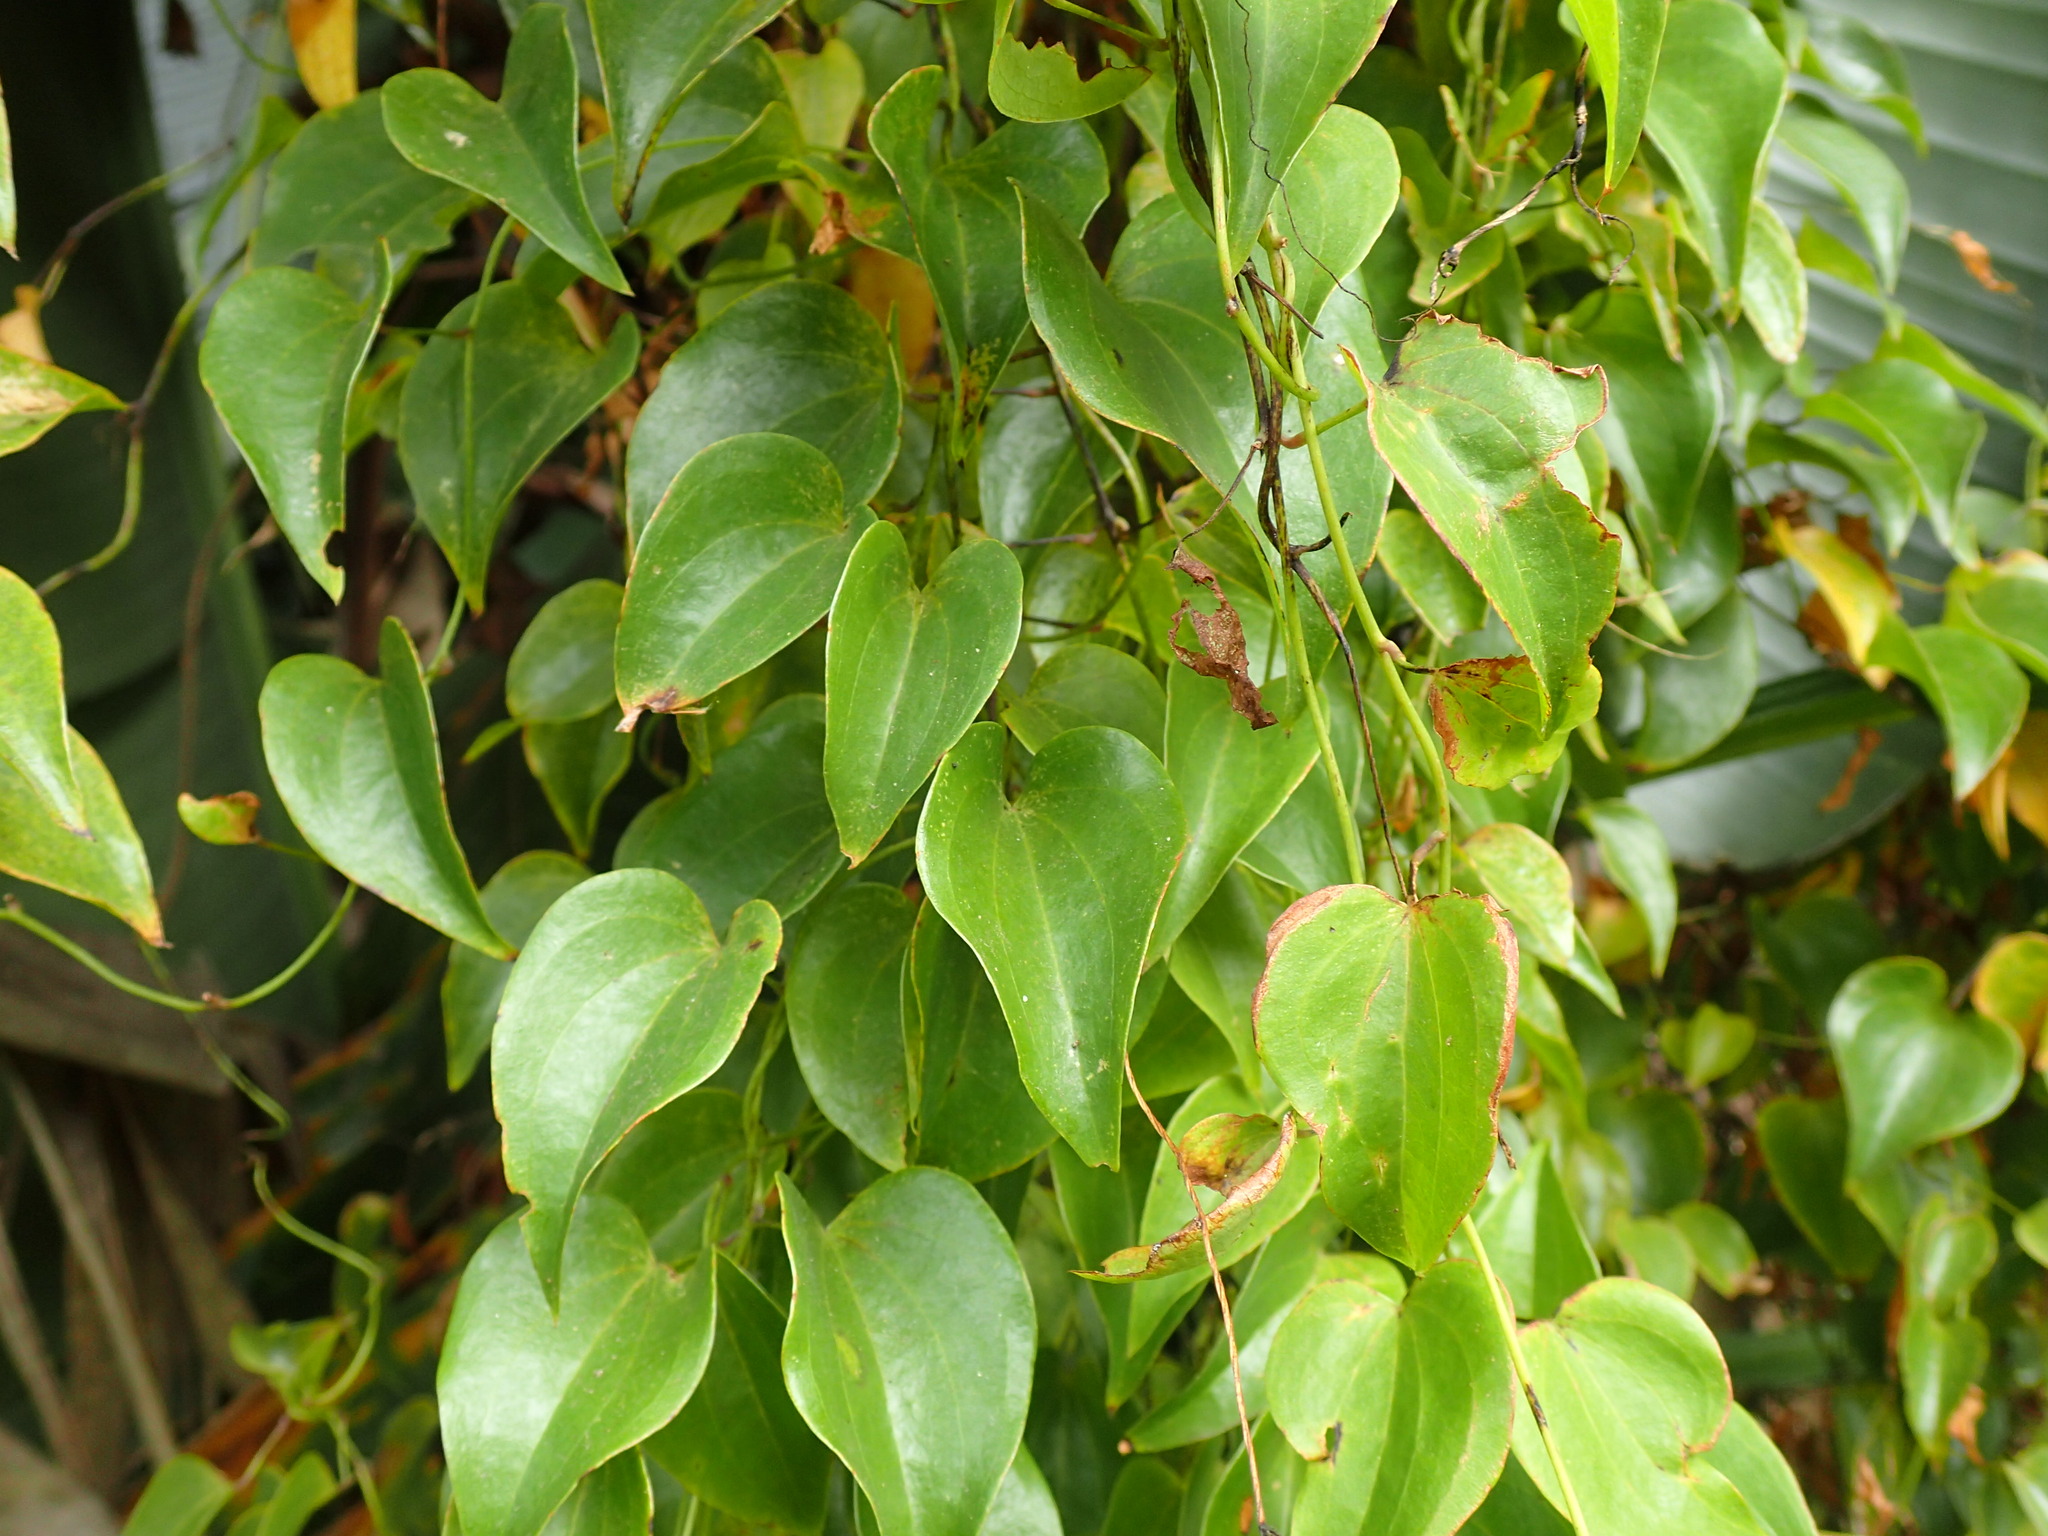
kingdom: Plantae
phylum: Tracheophyta
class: Liliopsida
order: Dioscoreales
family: Dioscoreaceae
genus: Dioscorea
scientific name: Dioscorea cotinifolia
